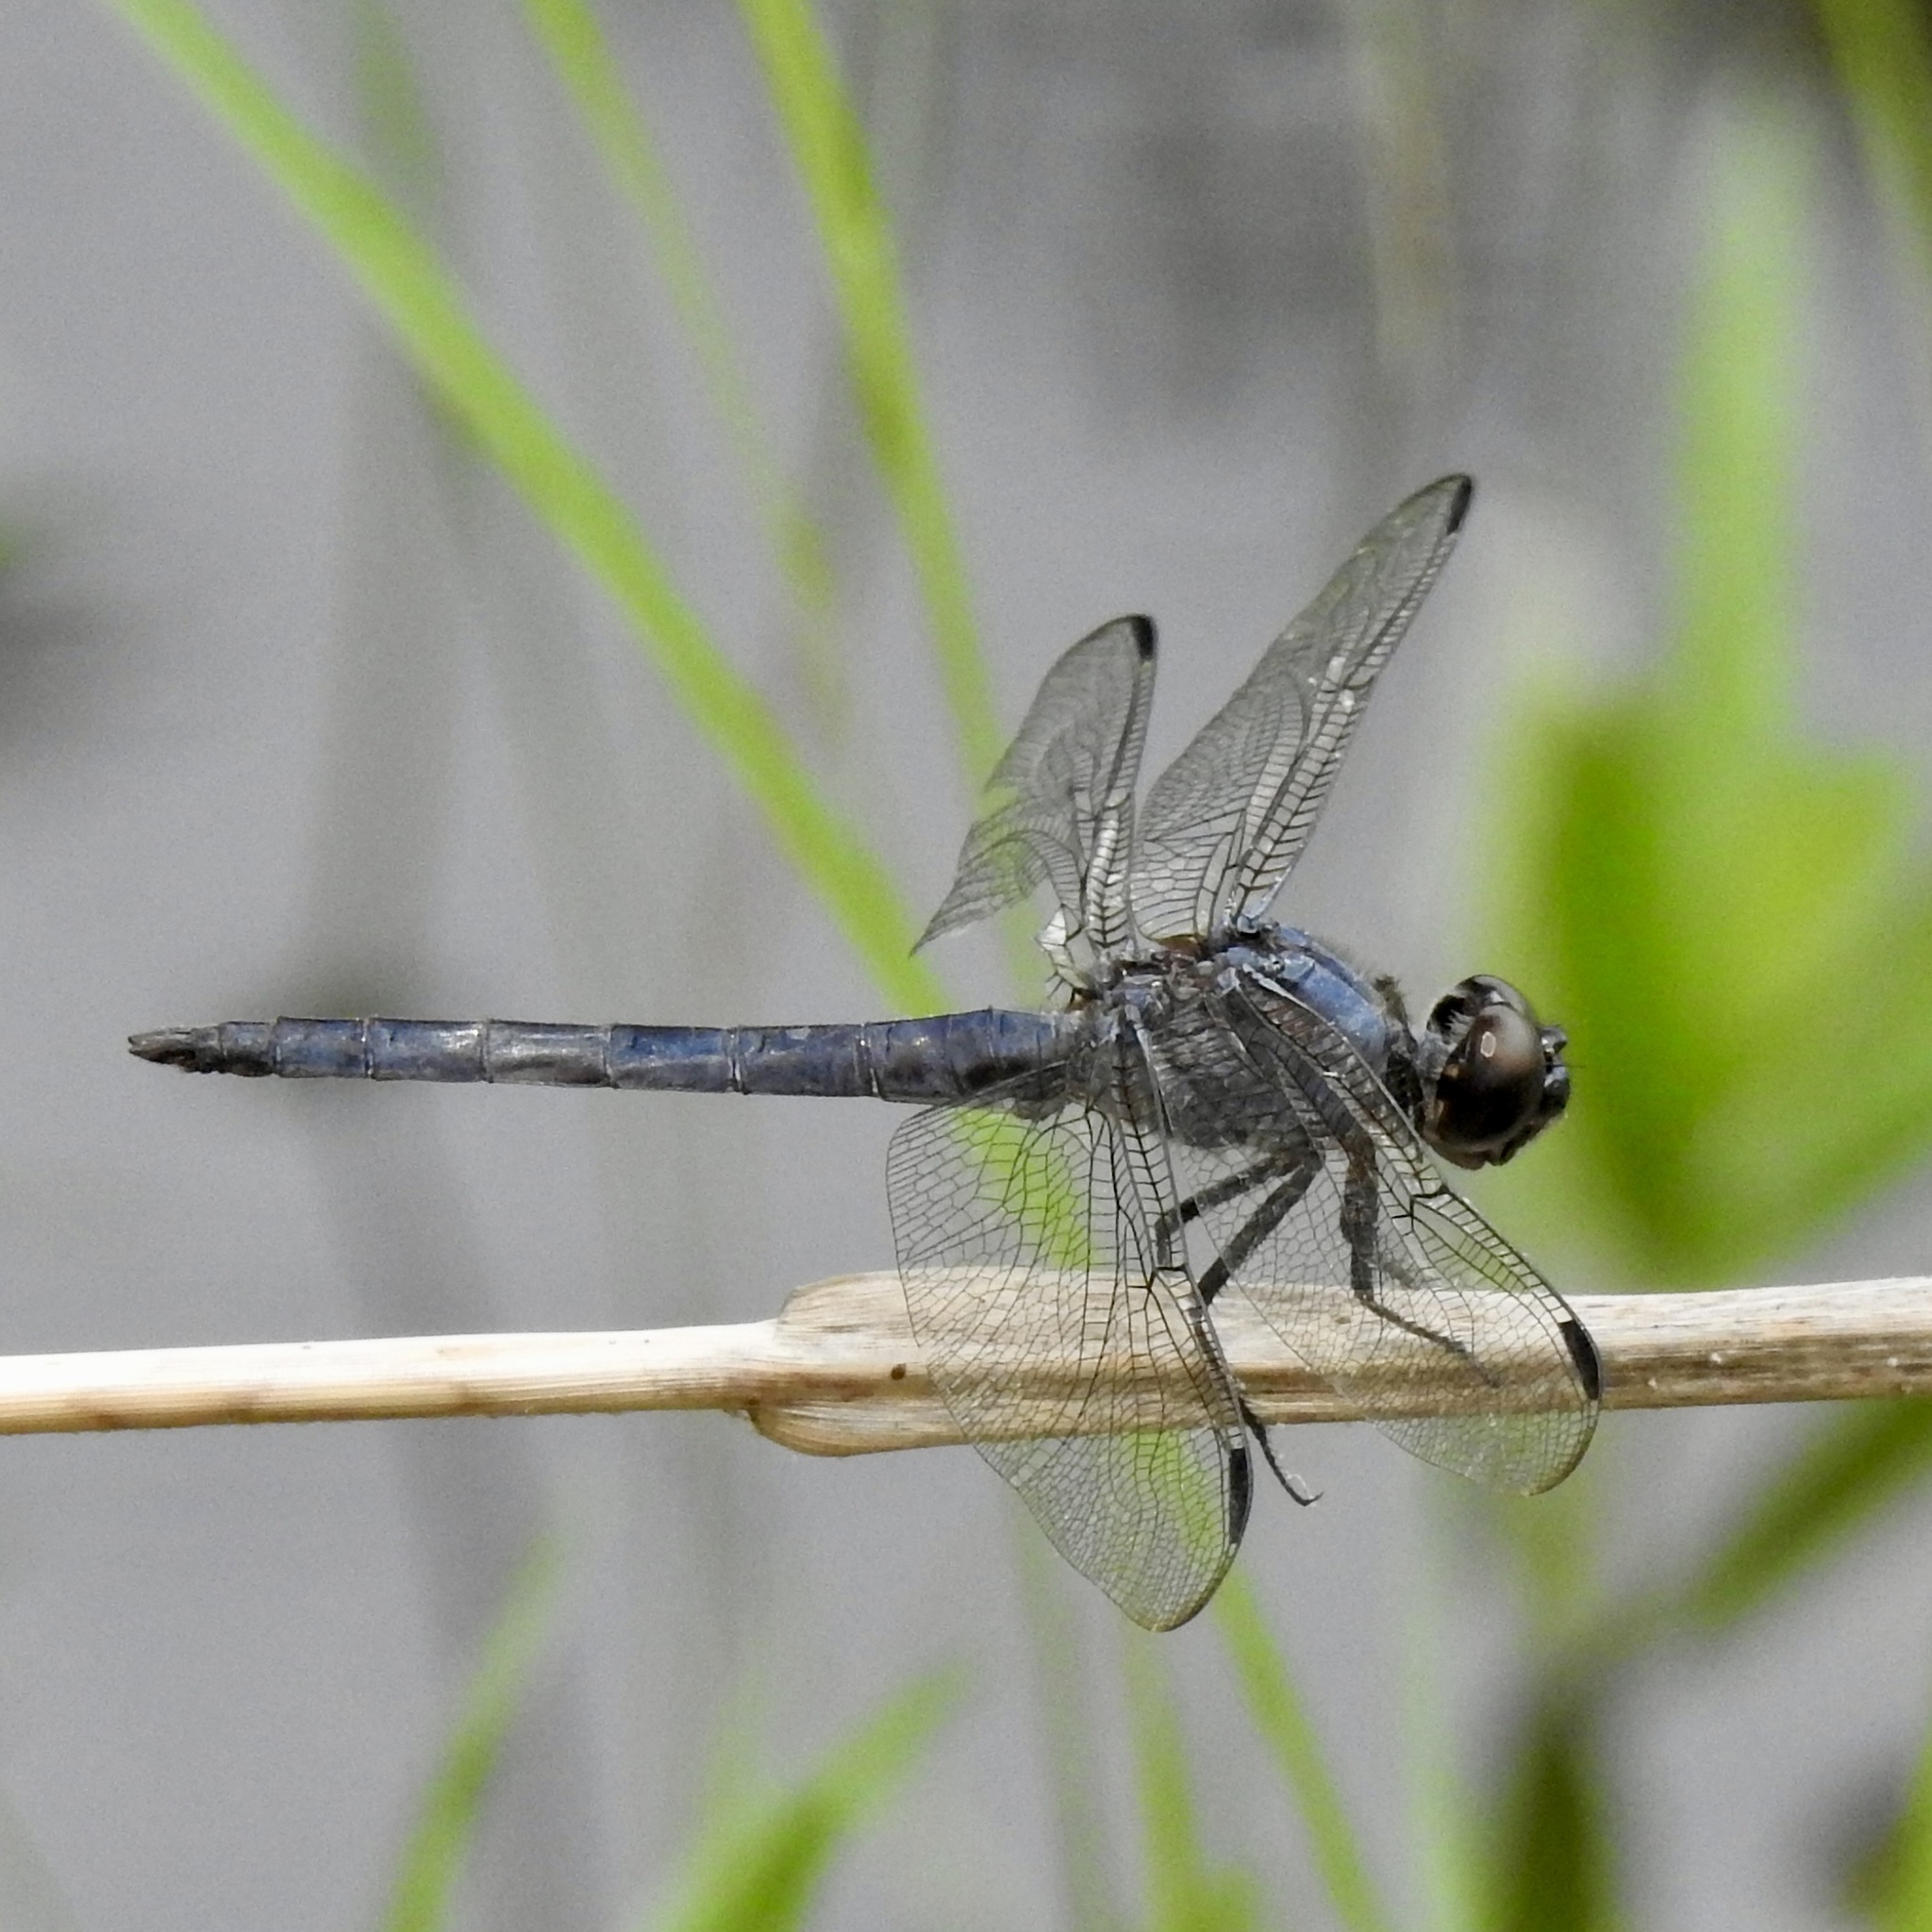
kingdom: Animalia
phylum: Arthropoda
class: Insecta
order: Odonata
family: Libellulidae
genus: Libellula
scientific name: Libellula incesta
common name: Slaty skimmer
